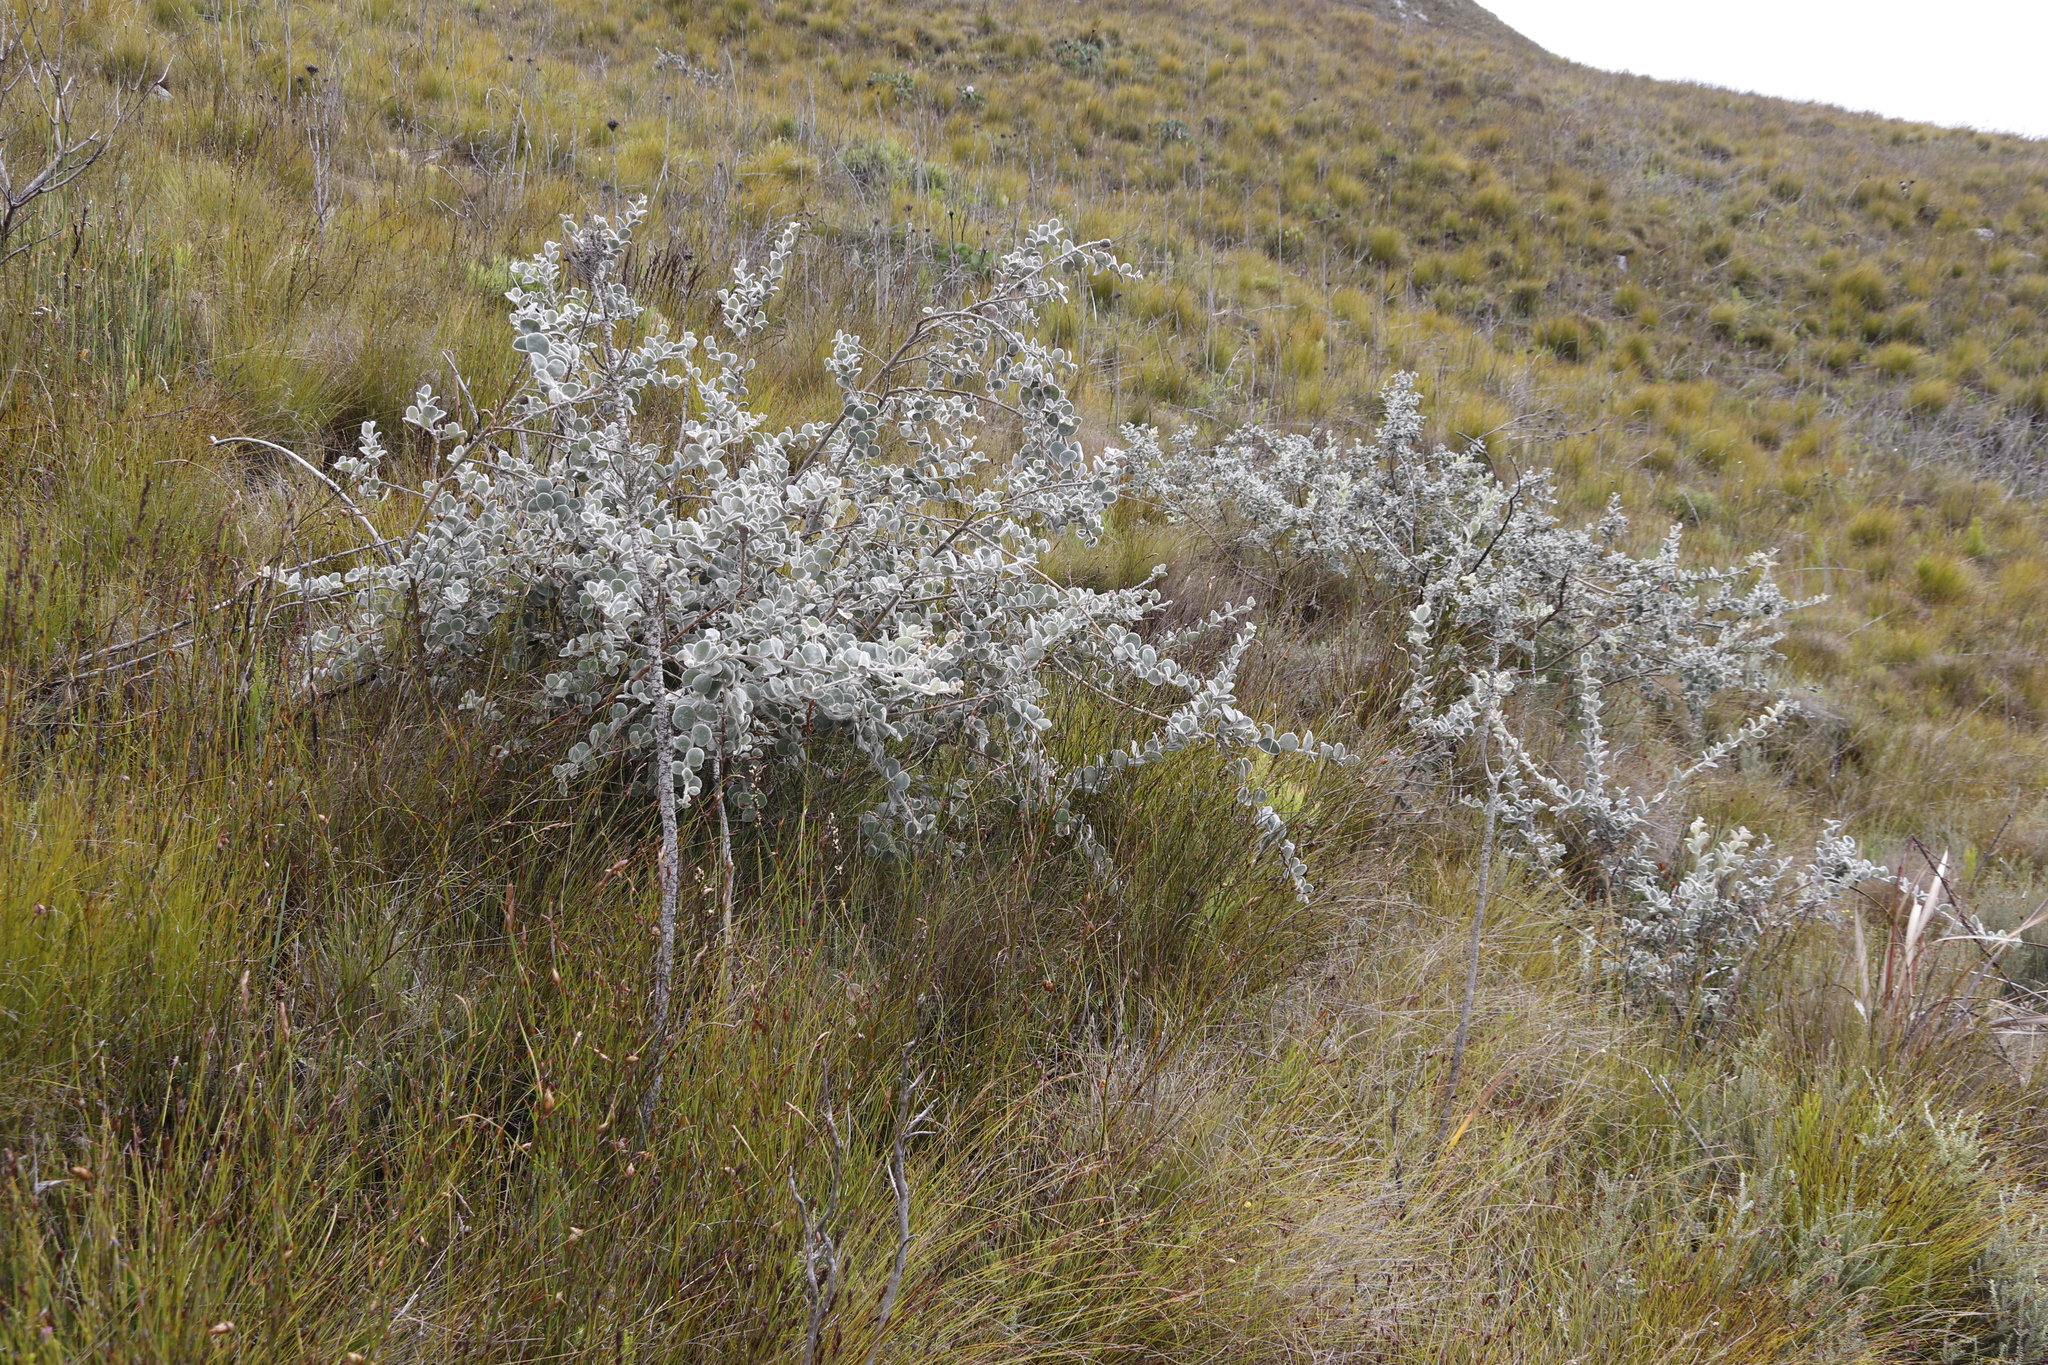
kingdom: Plantae
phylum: Tracheophyta
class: Magnoliopsida
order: Fabales
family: Fabaceae
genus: Podalyria
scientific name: Podalyria hirsuta
